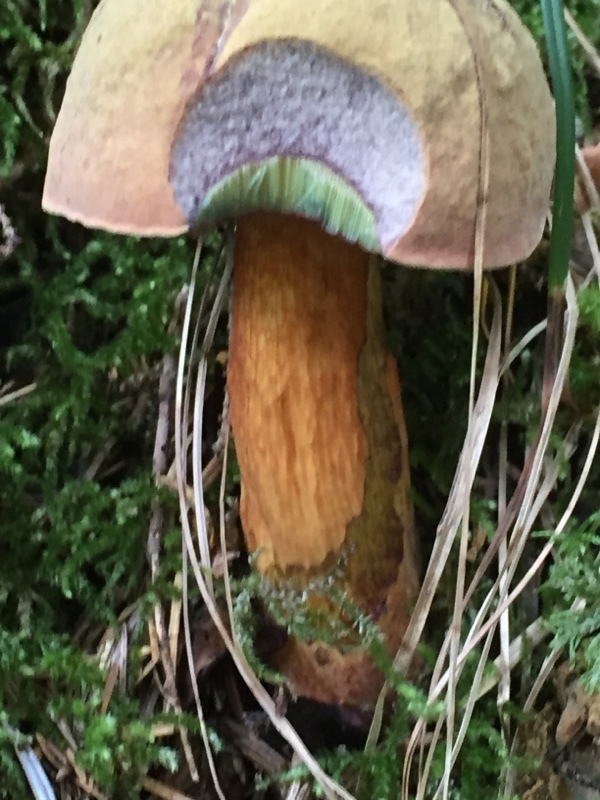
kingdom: Fungi
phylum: Basidiomycota
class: Agaricomycetes
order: Boletales
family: Boletaceae
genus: Suillellus
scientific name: Suillellus luridus
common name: Lurid bolete
